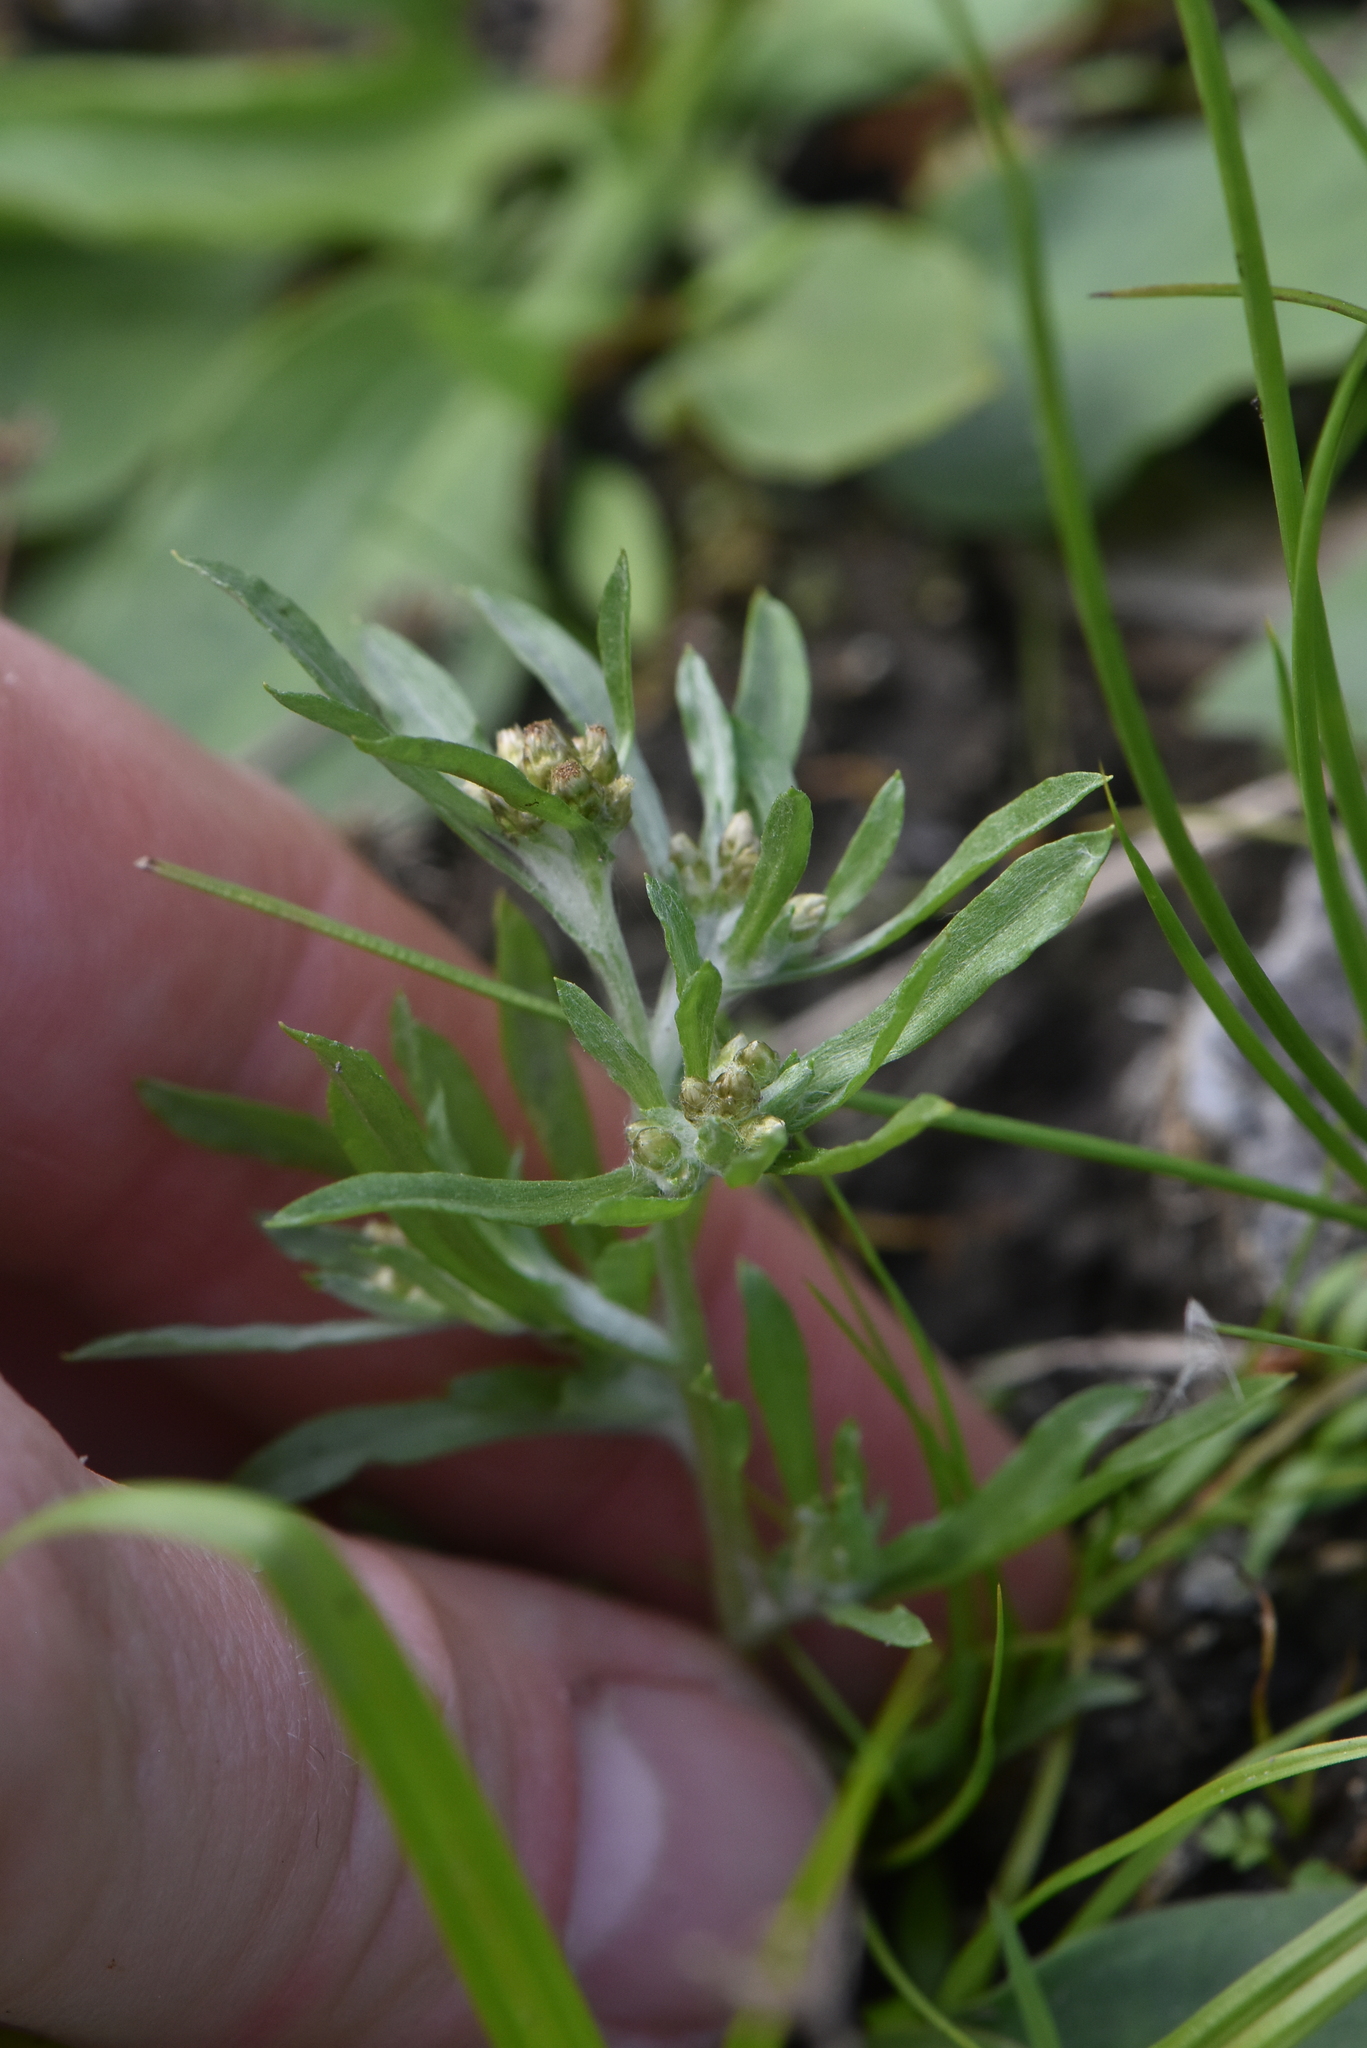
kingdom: Plantae
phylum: Tracheophyta
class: Magnoliopsida
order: Asterales
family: Asteraceae
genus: Gnaphalium
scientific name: Gnaphalium uliginosum
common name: Marsh cudweed
